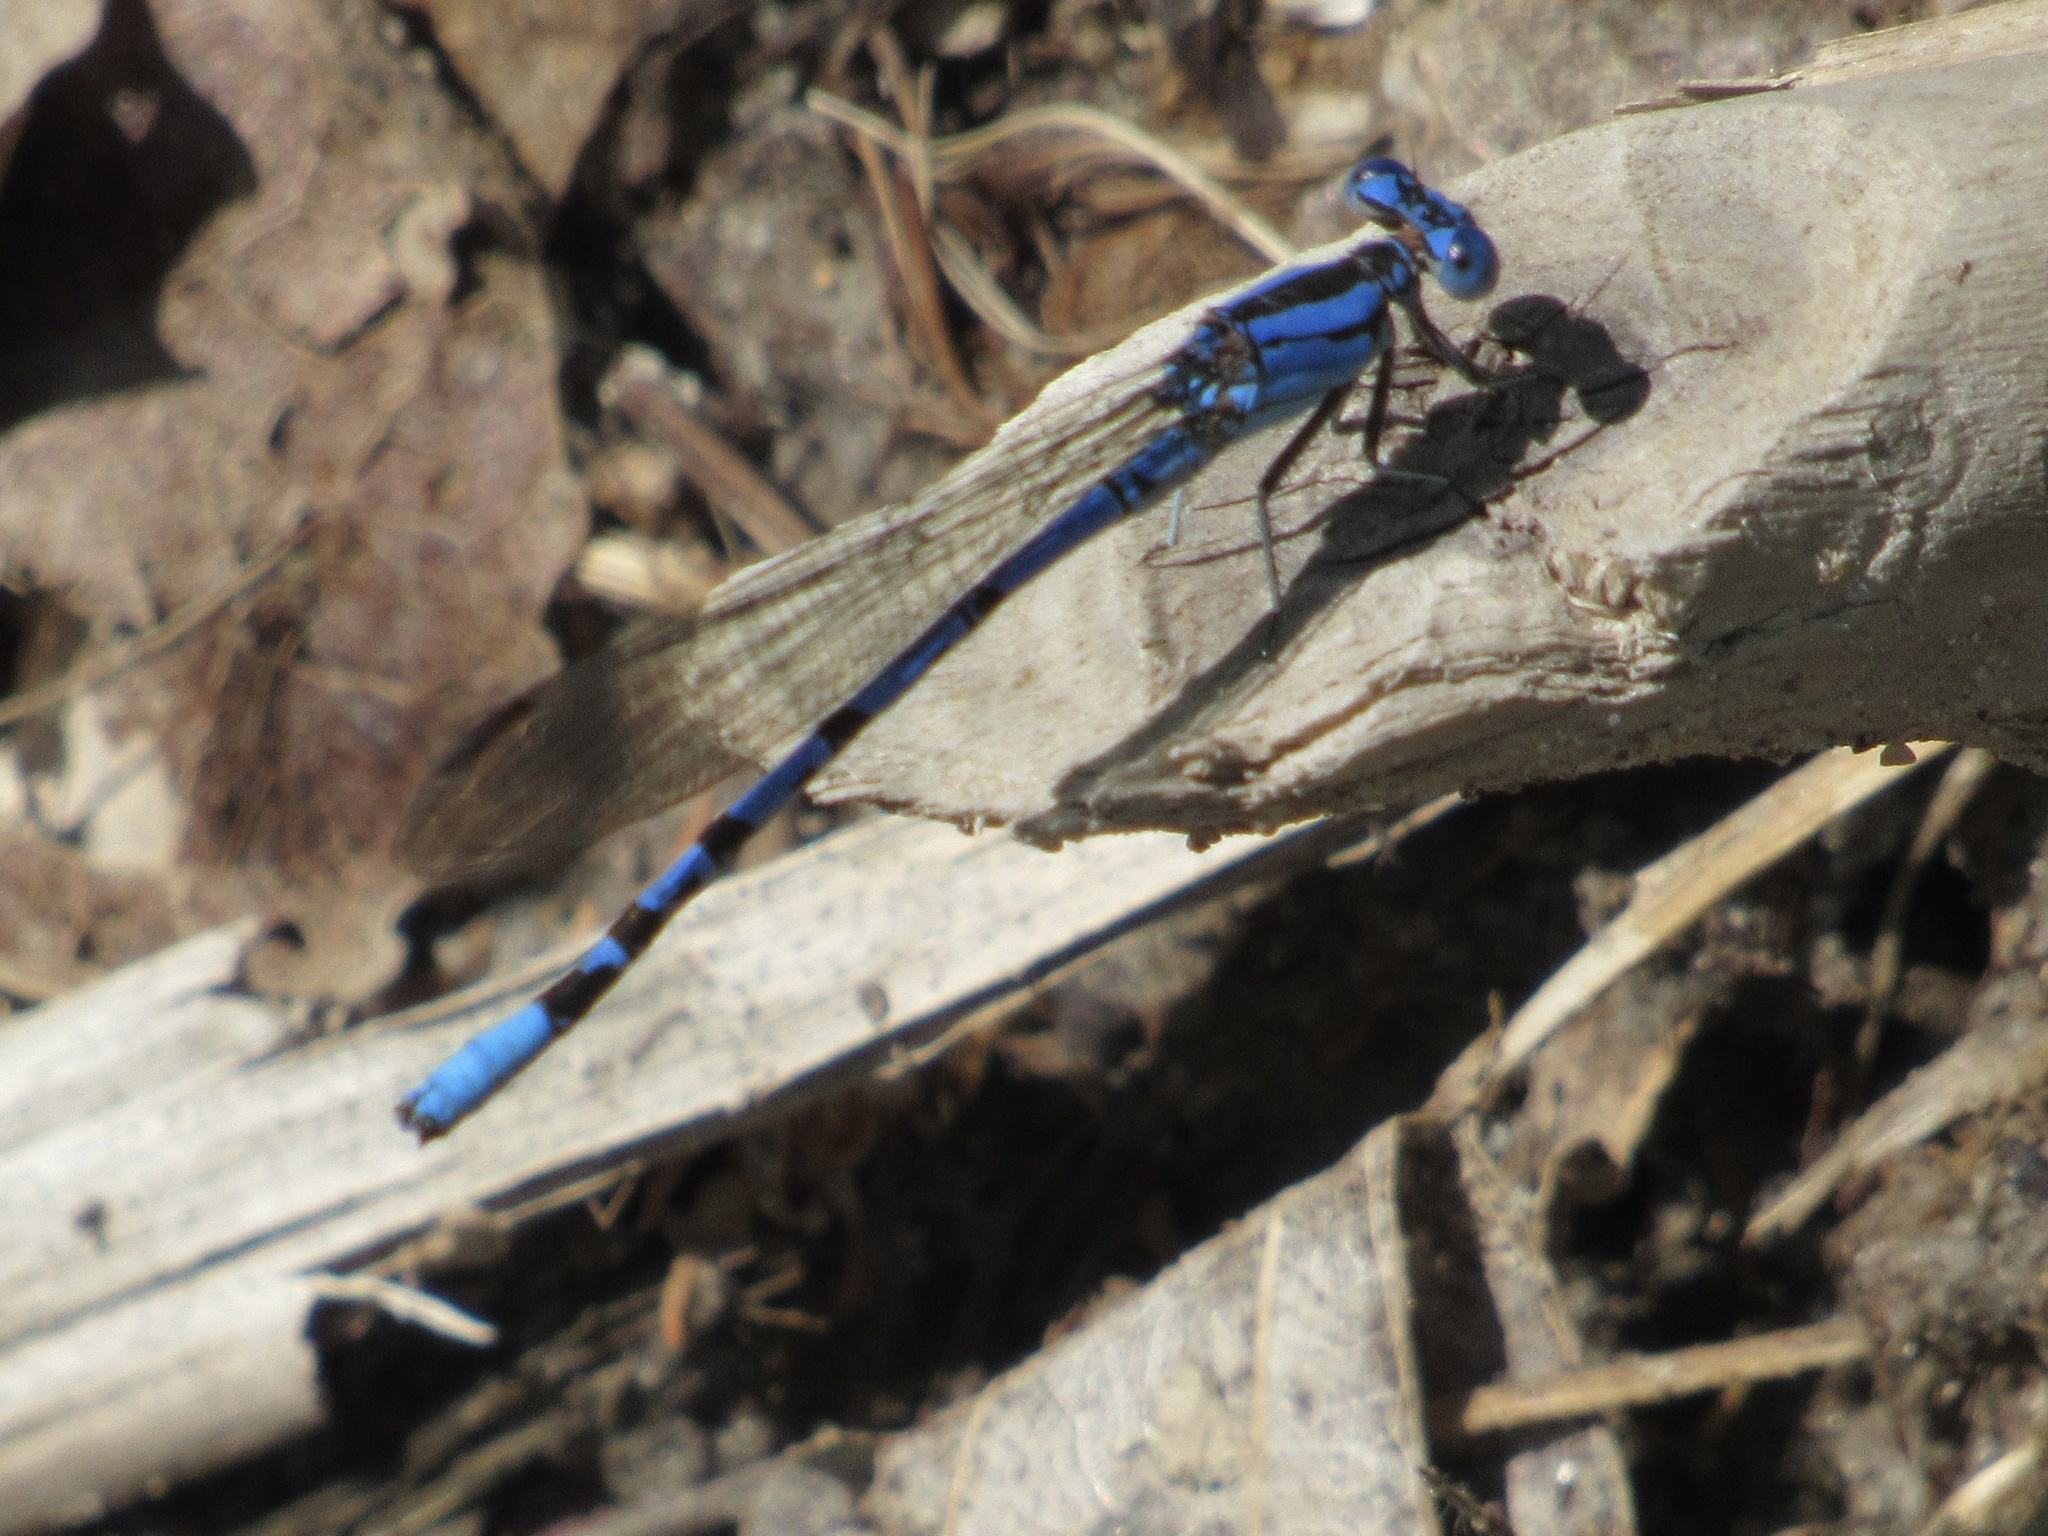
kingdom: Animalia
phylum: Arthropoda
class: Insecta
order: Odonata
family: Coenagrionidae
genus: Argia
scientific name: Argia funebris
